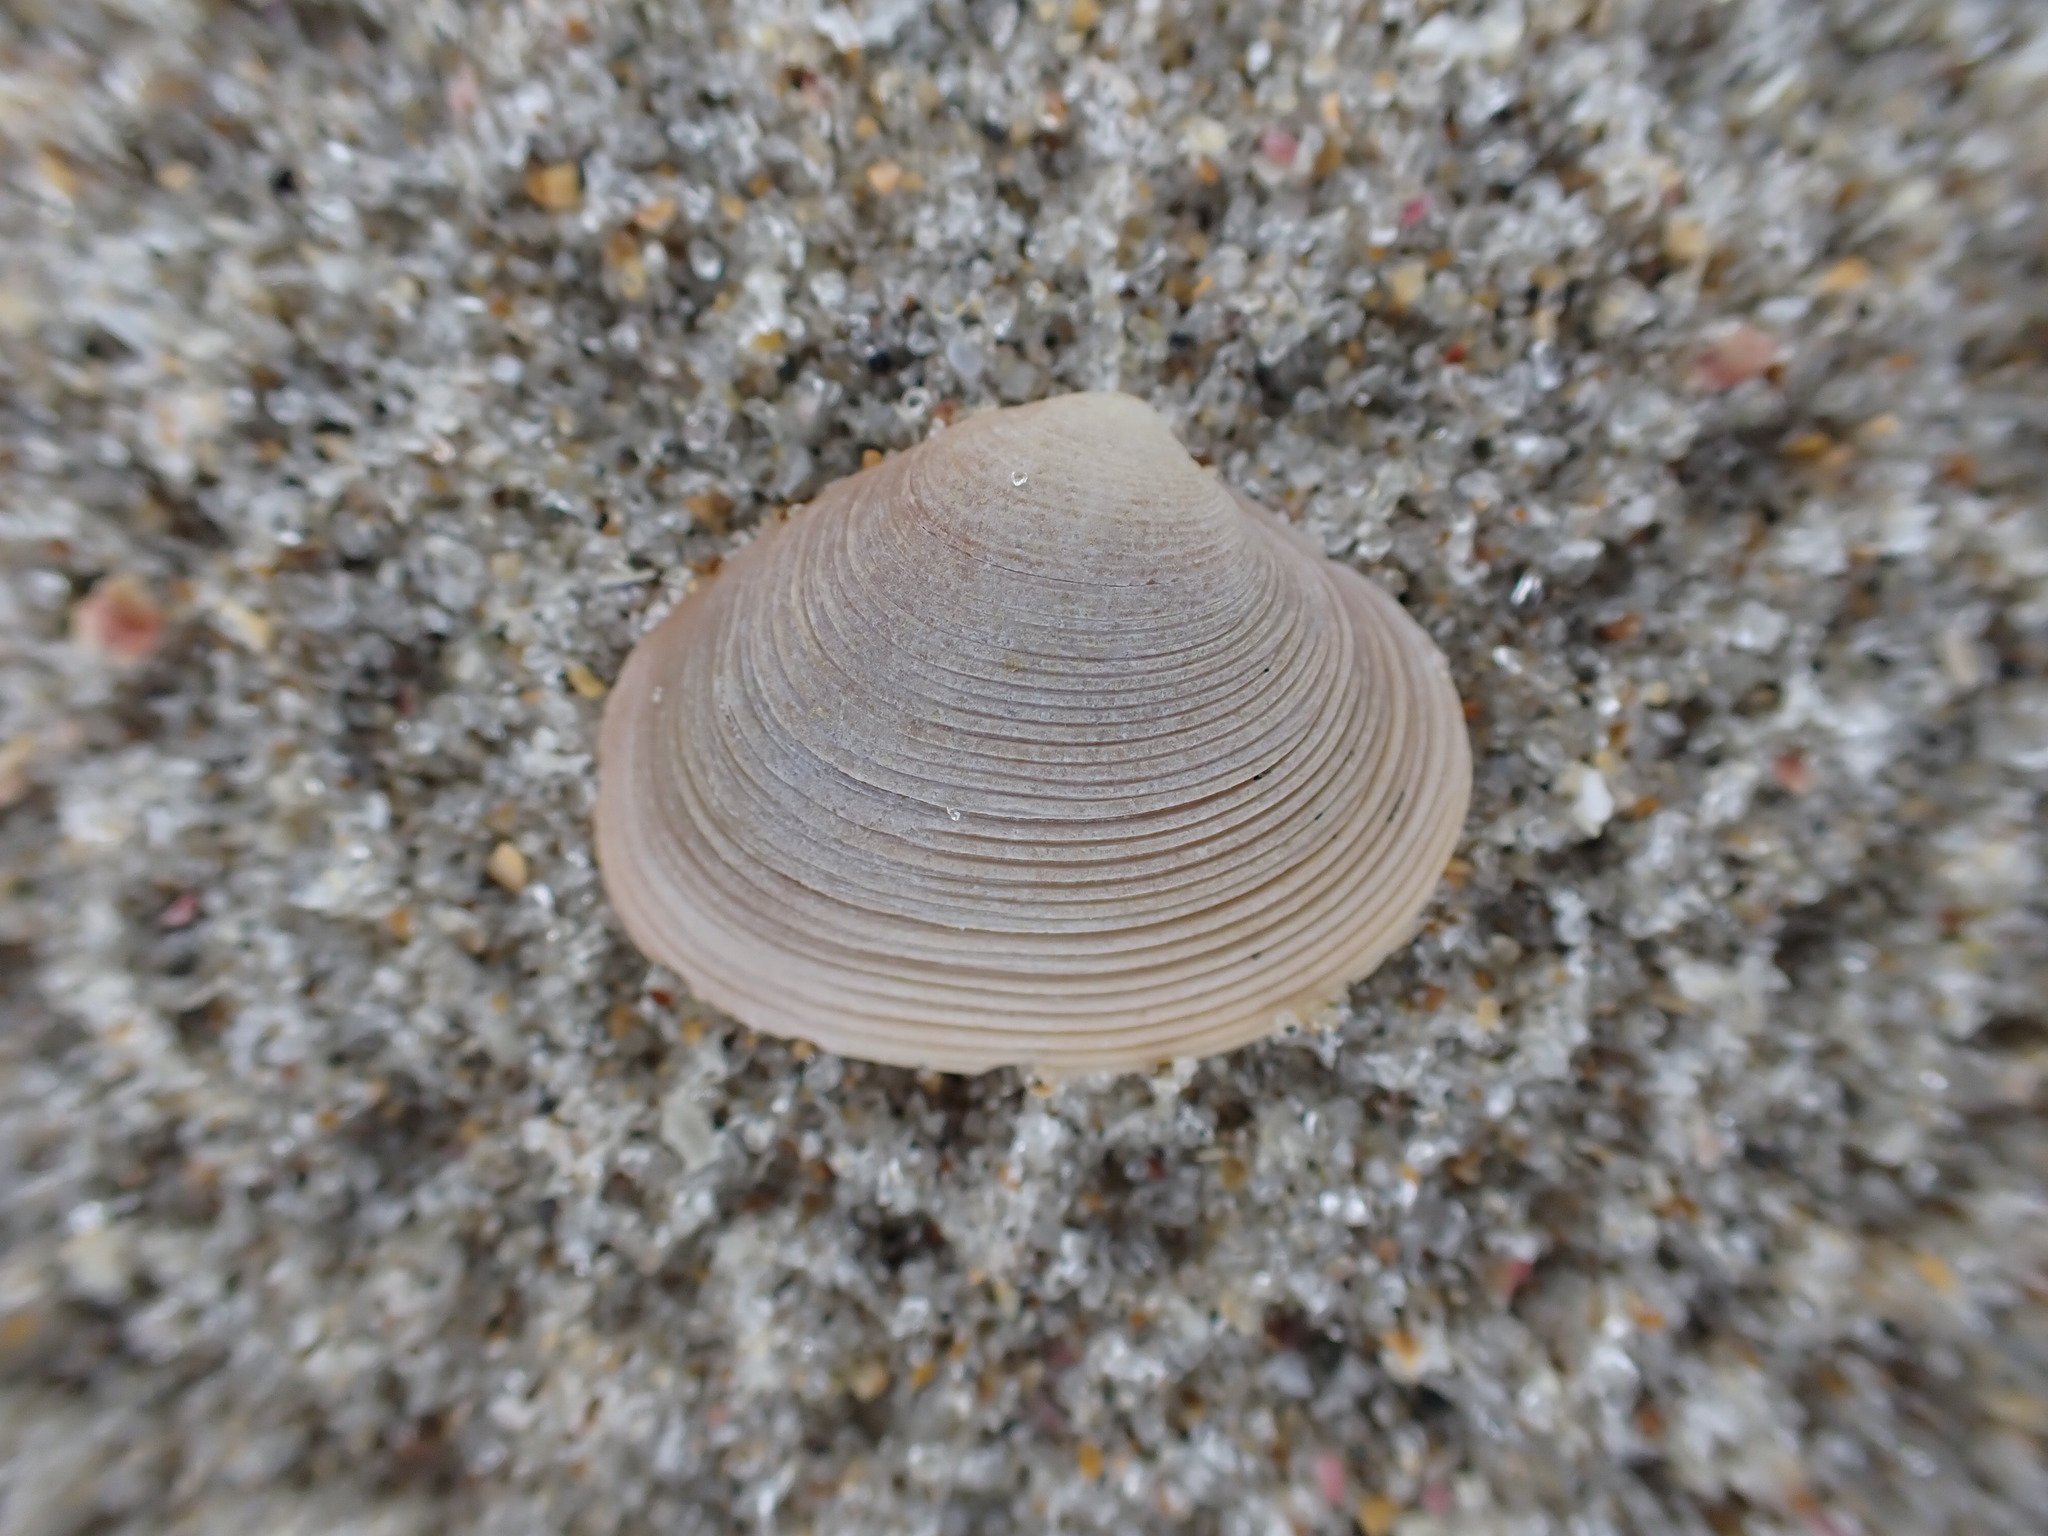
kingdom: Animalia
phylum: Mollusca
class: Bivalvia
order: Venerida
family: Veneridae
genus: Tawera
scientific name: Tawera spissa
